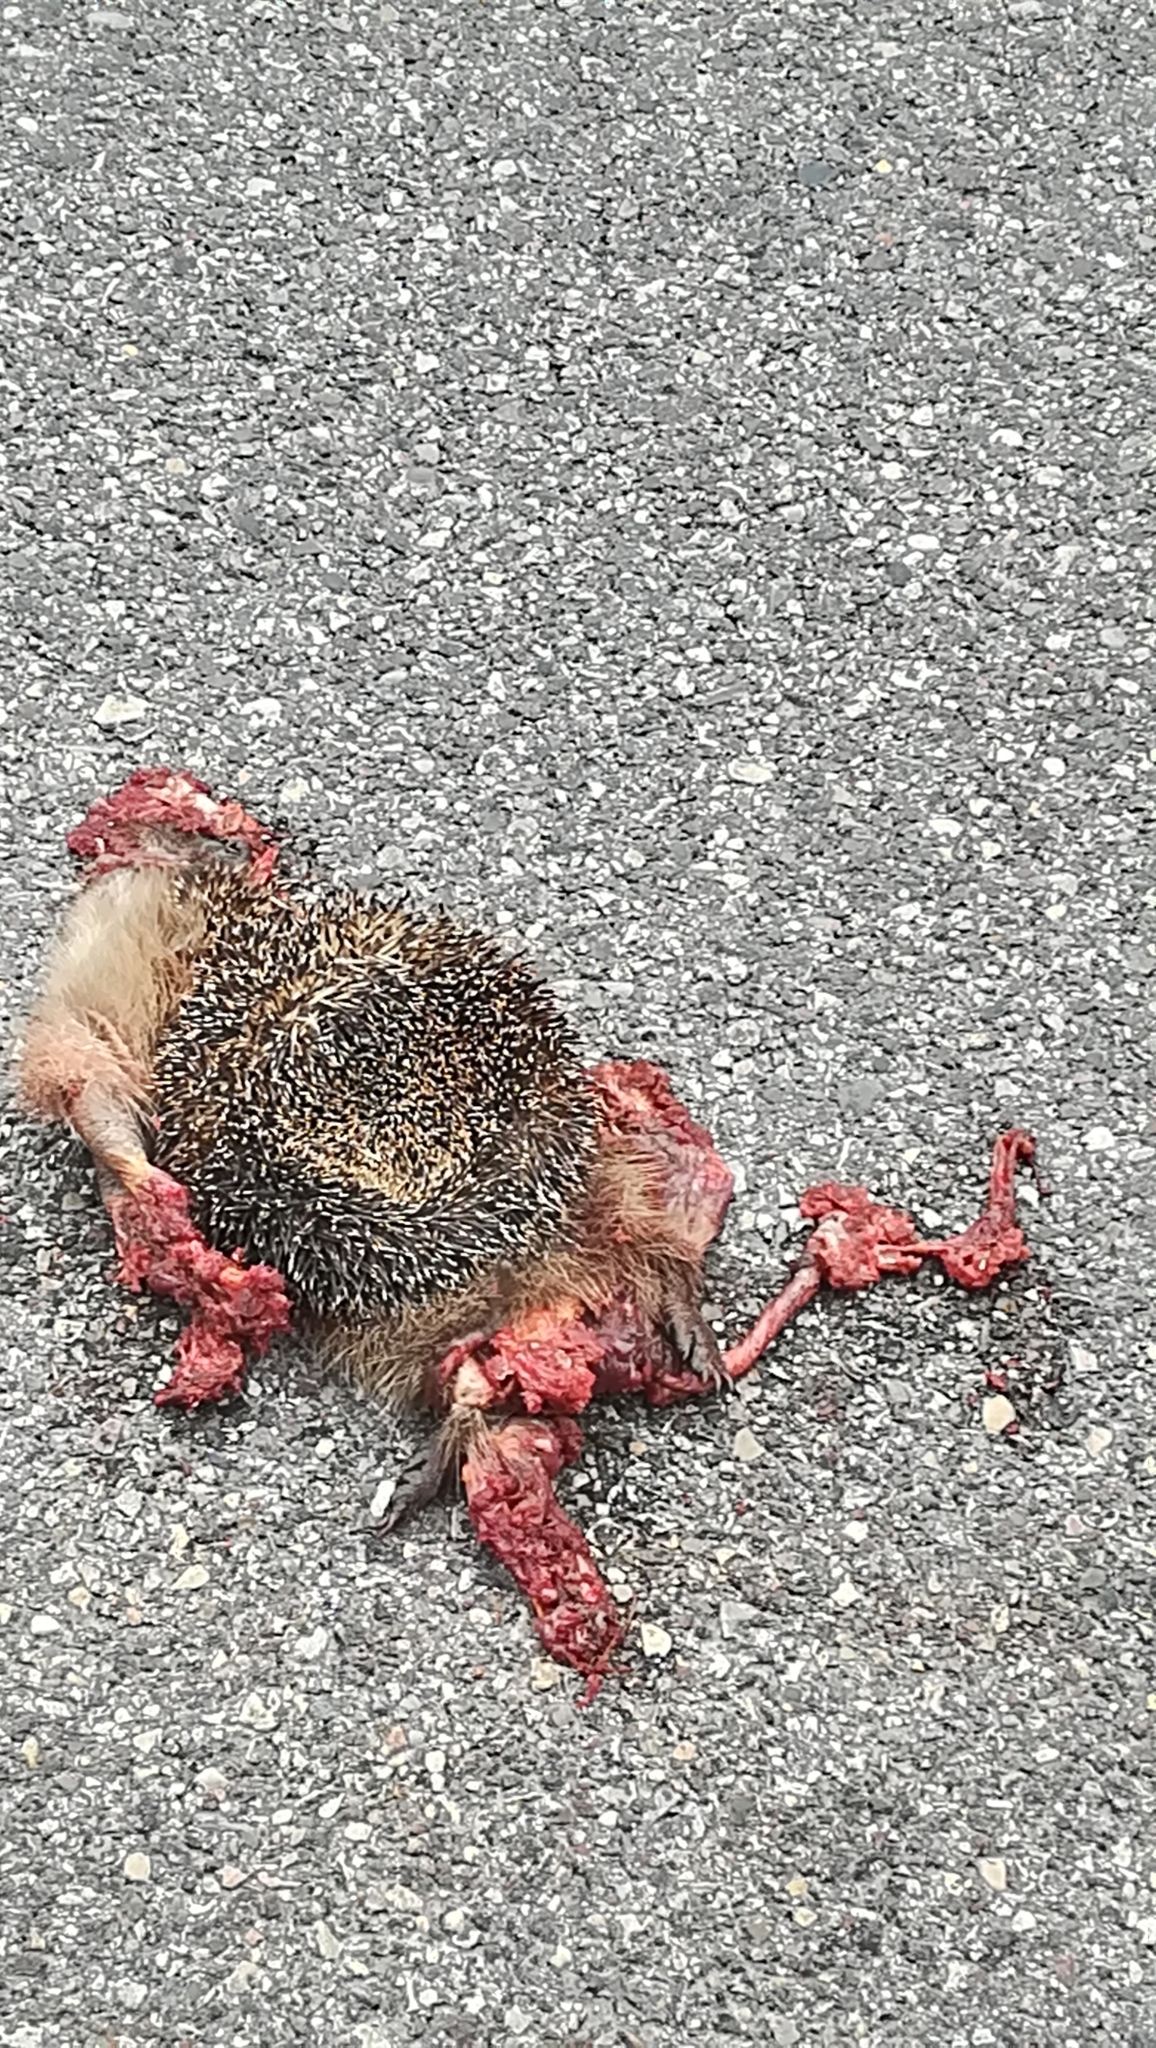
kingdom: Animalia
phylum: Chordata
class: Mammalia
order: Erinaceomorpha
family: Erinaceidae
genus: Erinaceus
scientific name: Erinaceus europaeus
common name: West european hedgehog
